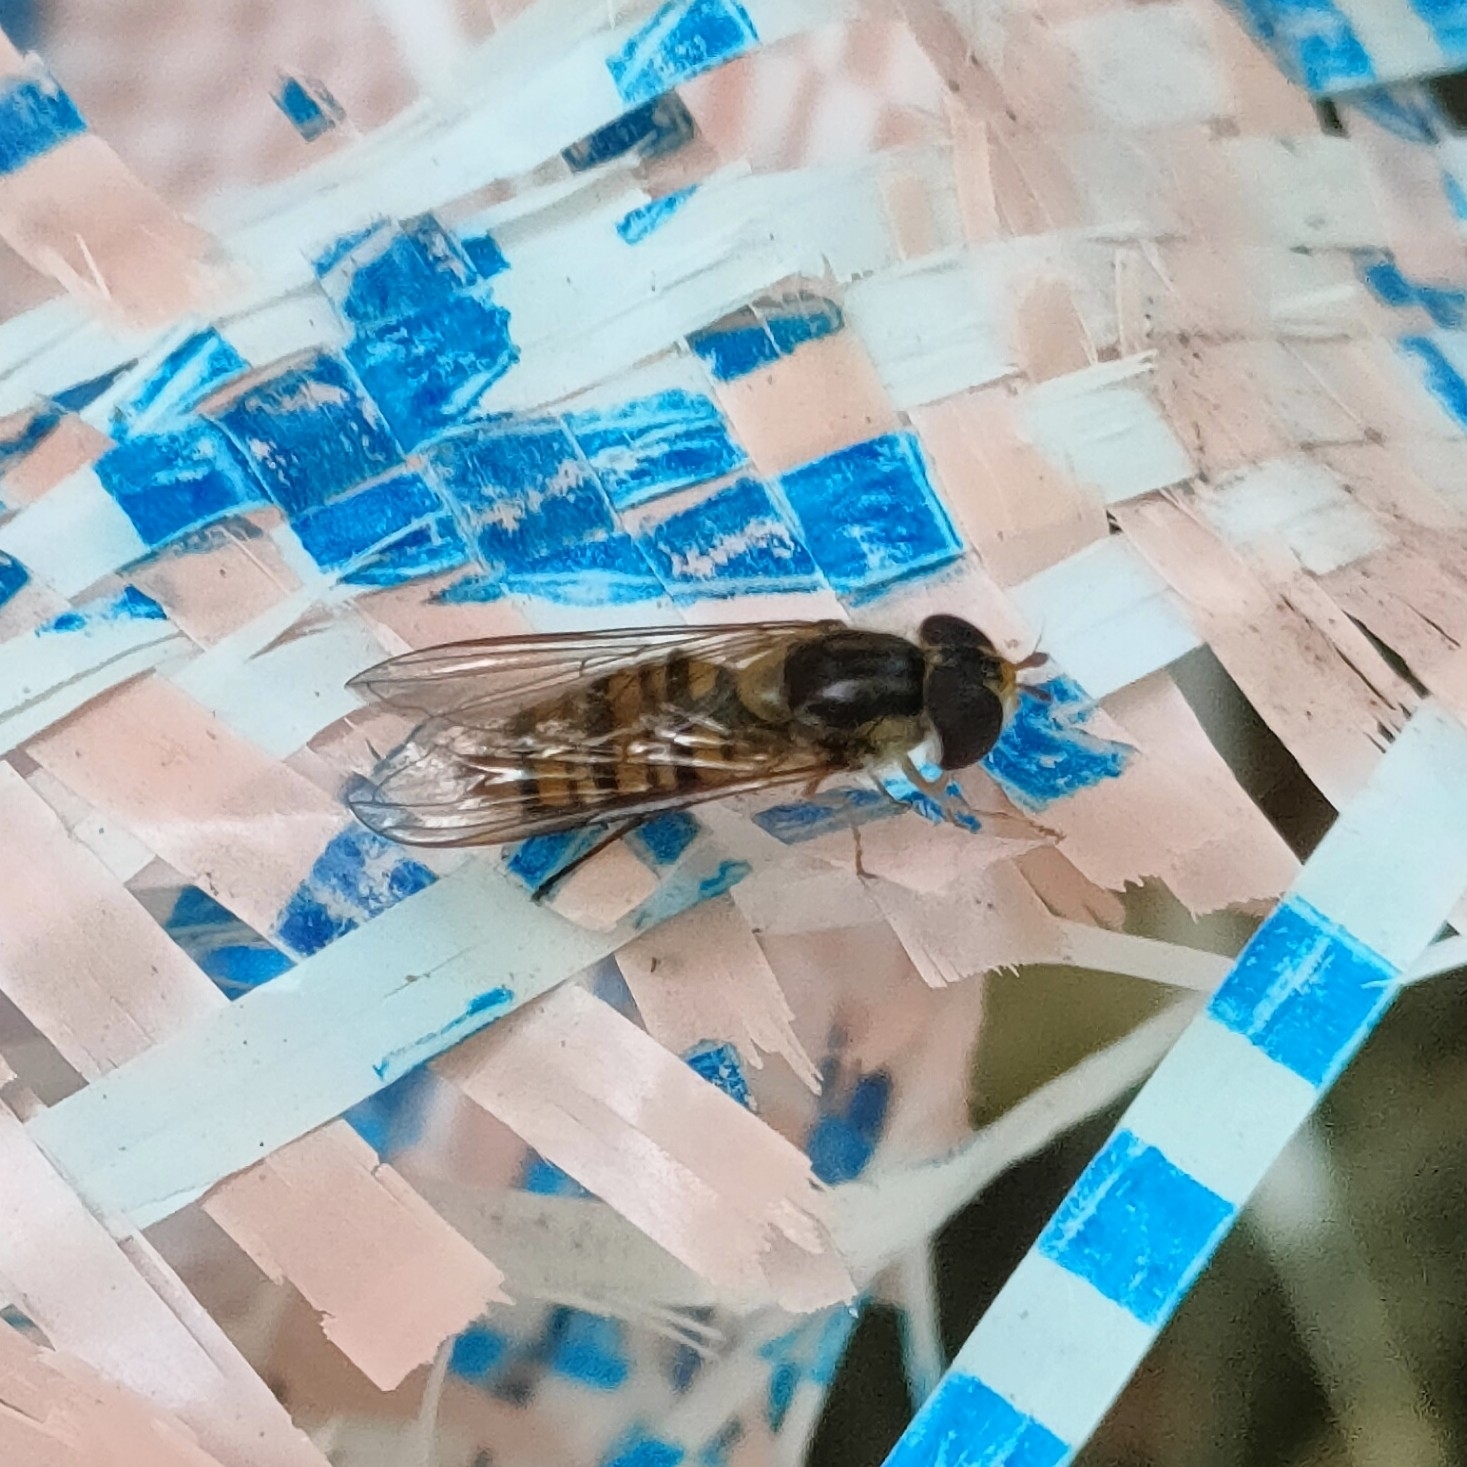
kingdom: Animalia
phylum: Arthropoda
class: Insecta
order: Diptera
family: Syrphidae
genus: Episyrphus
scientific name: Episyrphus balteatus
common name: Marmalade hoverfly
